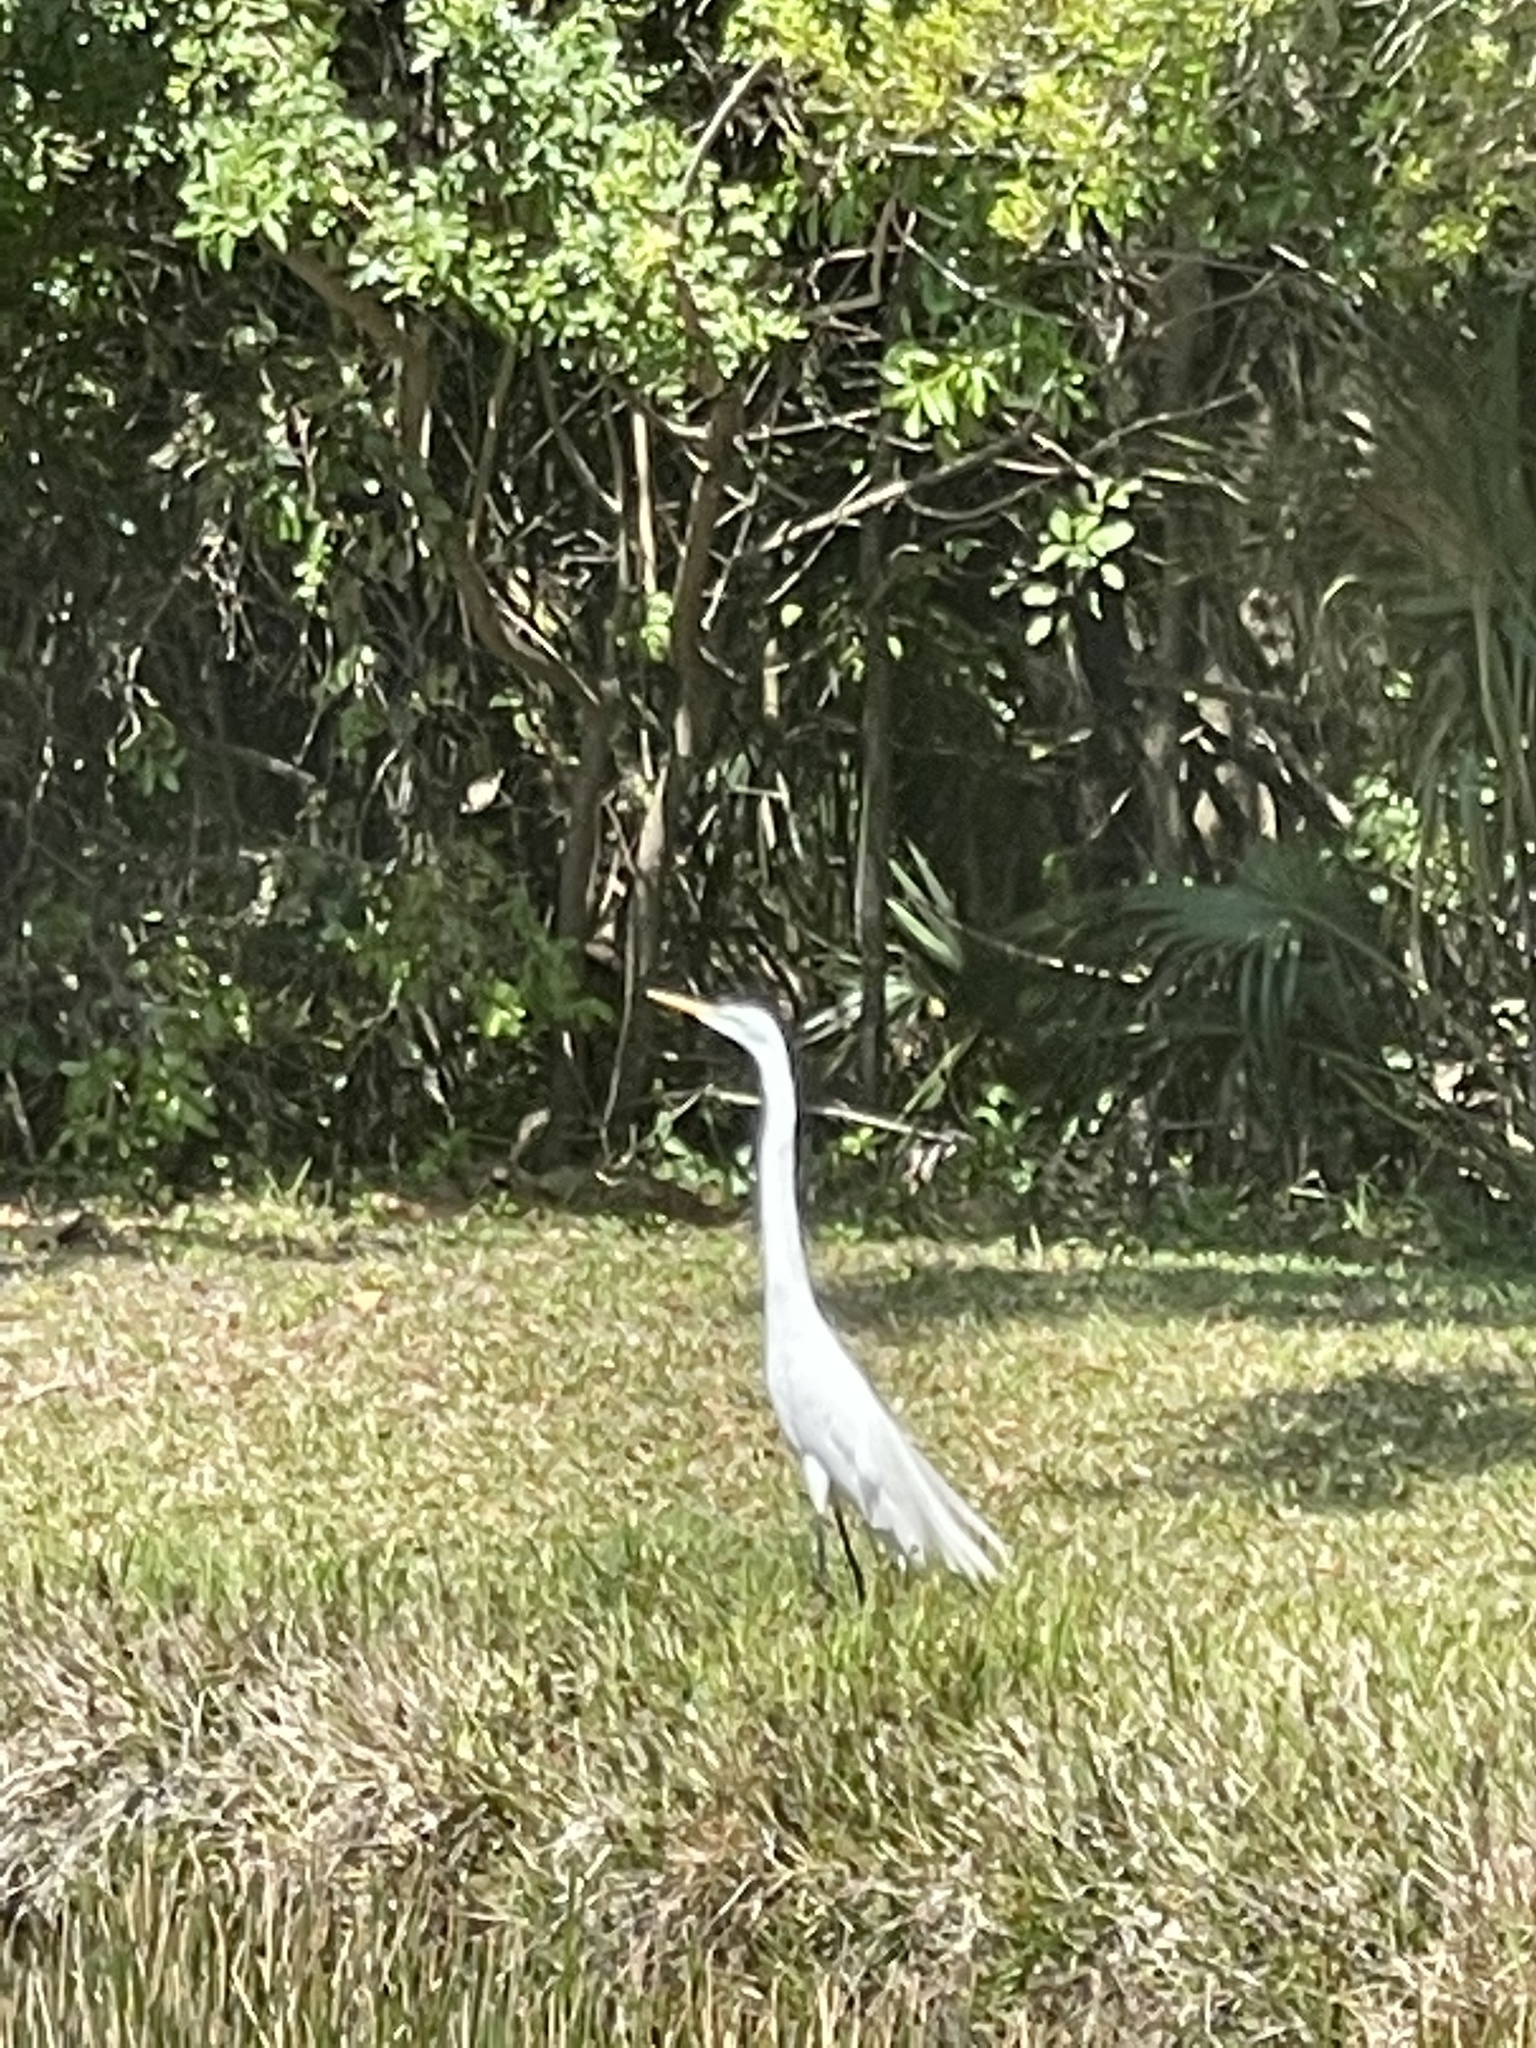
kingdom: Animalia
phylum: Chordata
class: Aves
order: Pelecaniformes
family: Ardeidae
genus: Ardea
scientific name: Ardea alba
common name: Great egret
